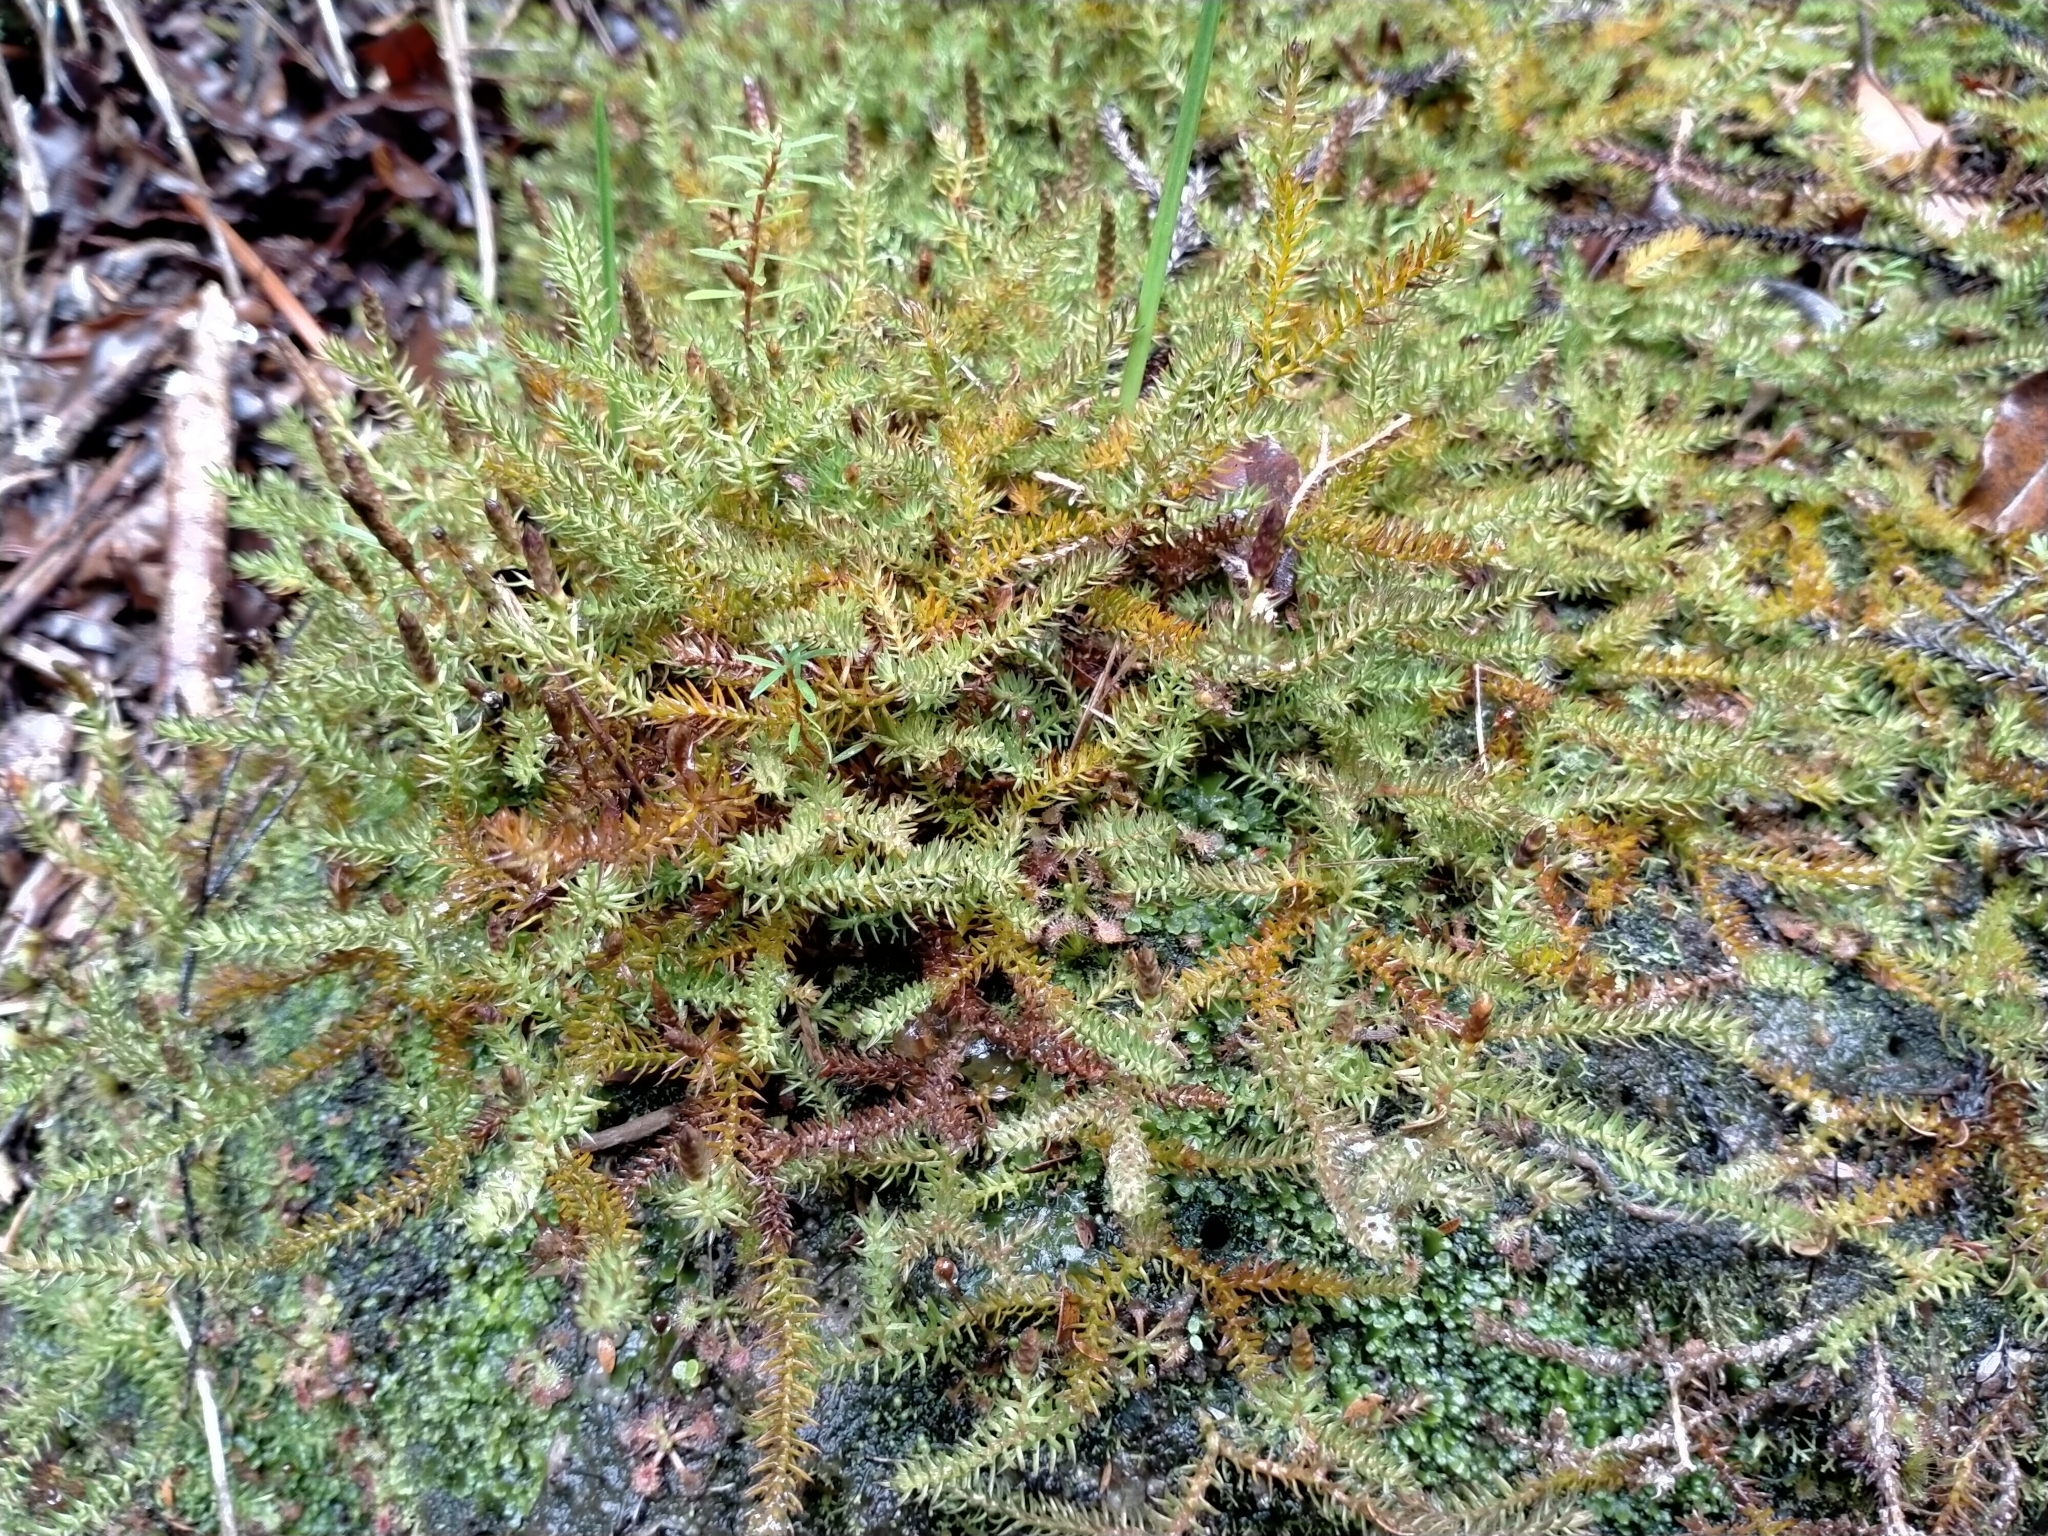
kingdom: Plantae
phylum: Tracheophyta
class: Lycopodiopsida
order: Lycopodiales
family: Lycopodiaceae
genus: Lateristachys
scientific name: Lateristachys diffusa
